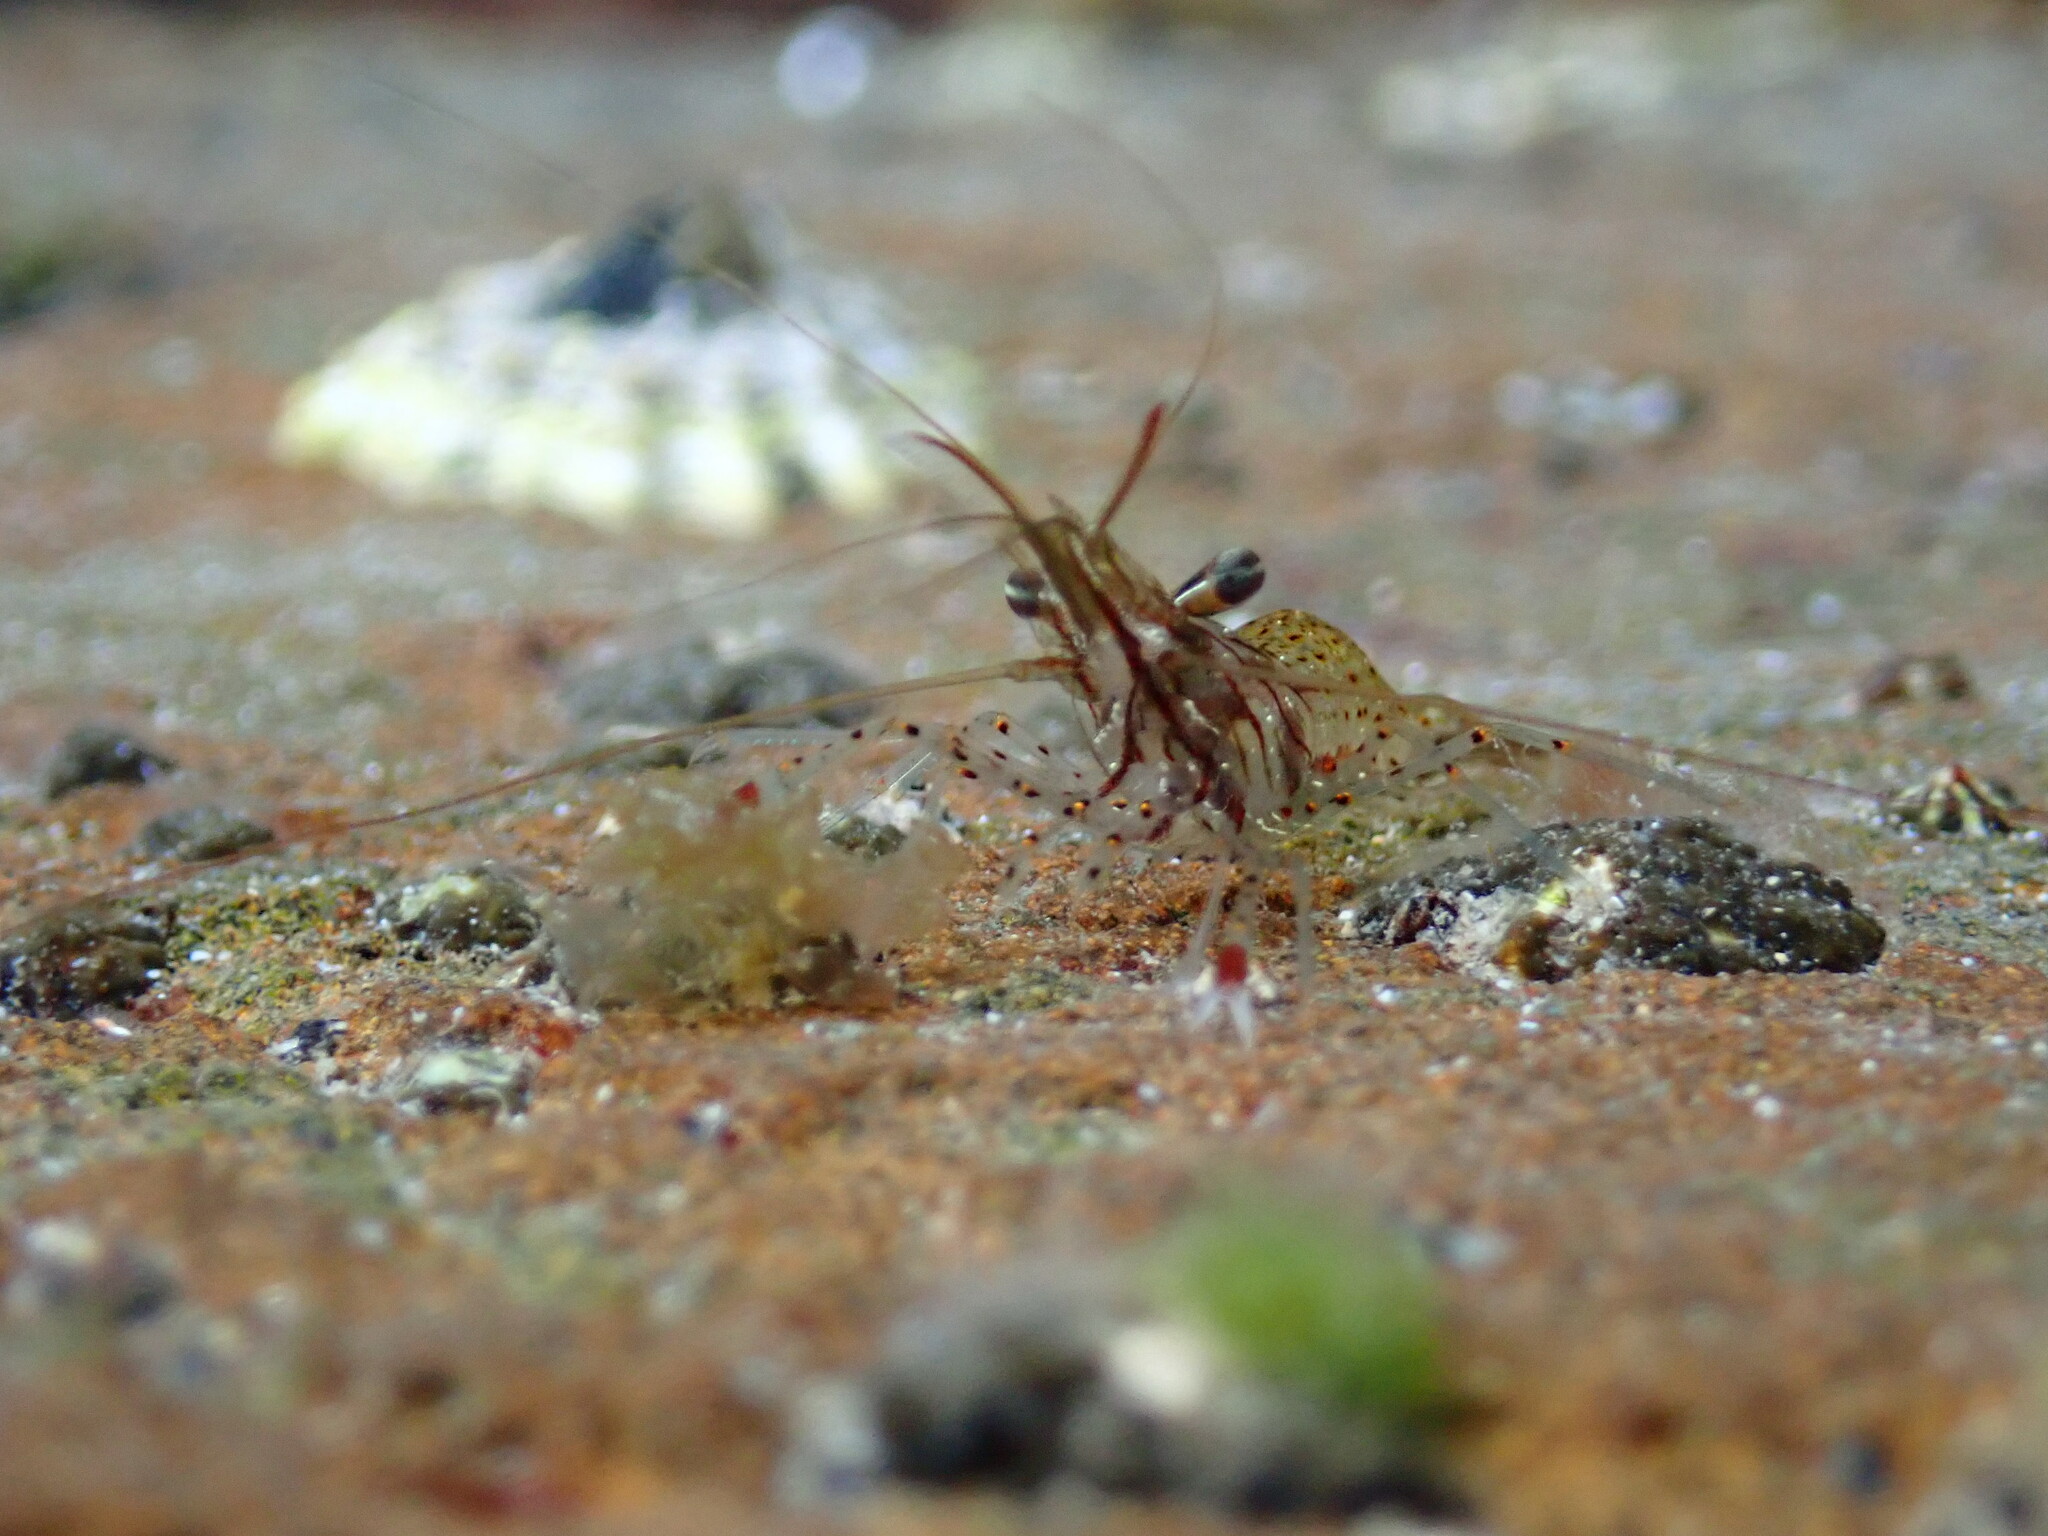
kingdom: Animalia
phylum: Arthropoda
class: Malacostraca
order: Decapoda
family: Palaemonidae
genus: Palaemon
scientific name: Palaemon serenus
